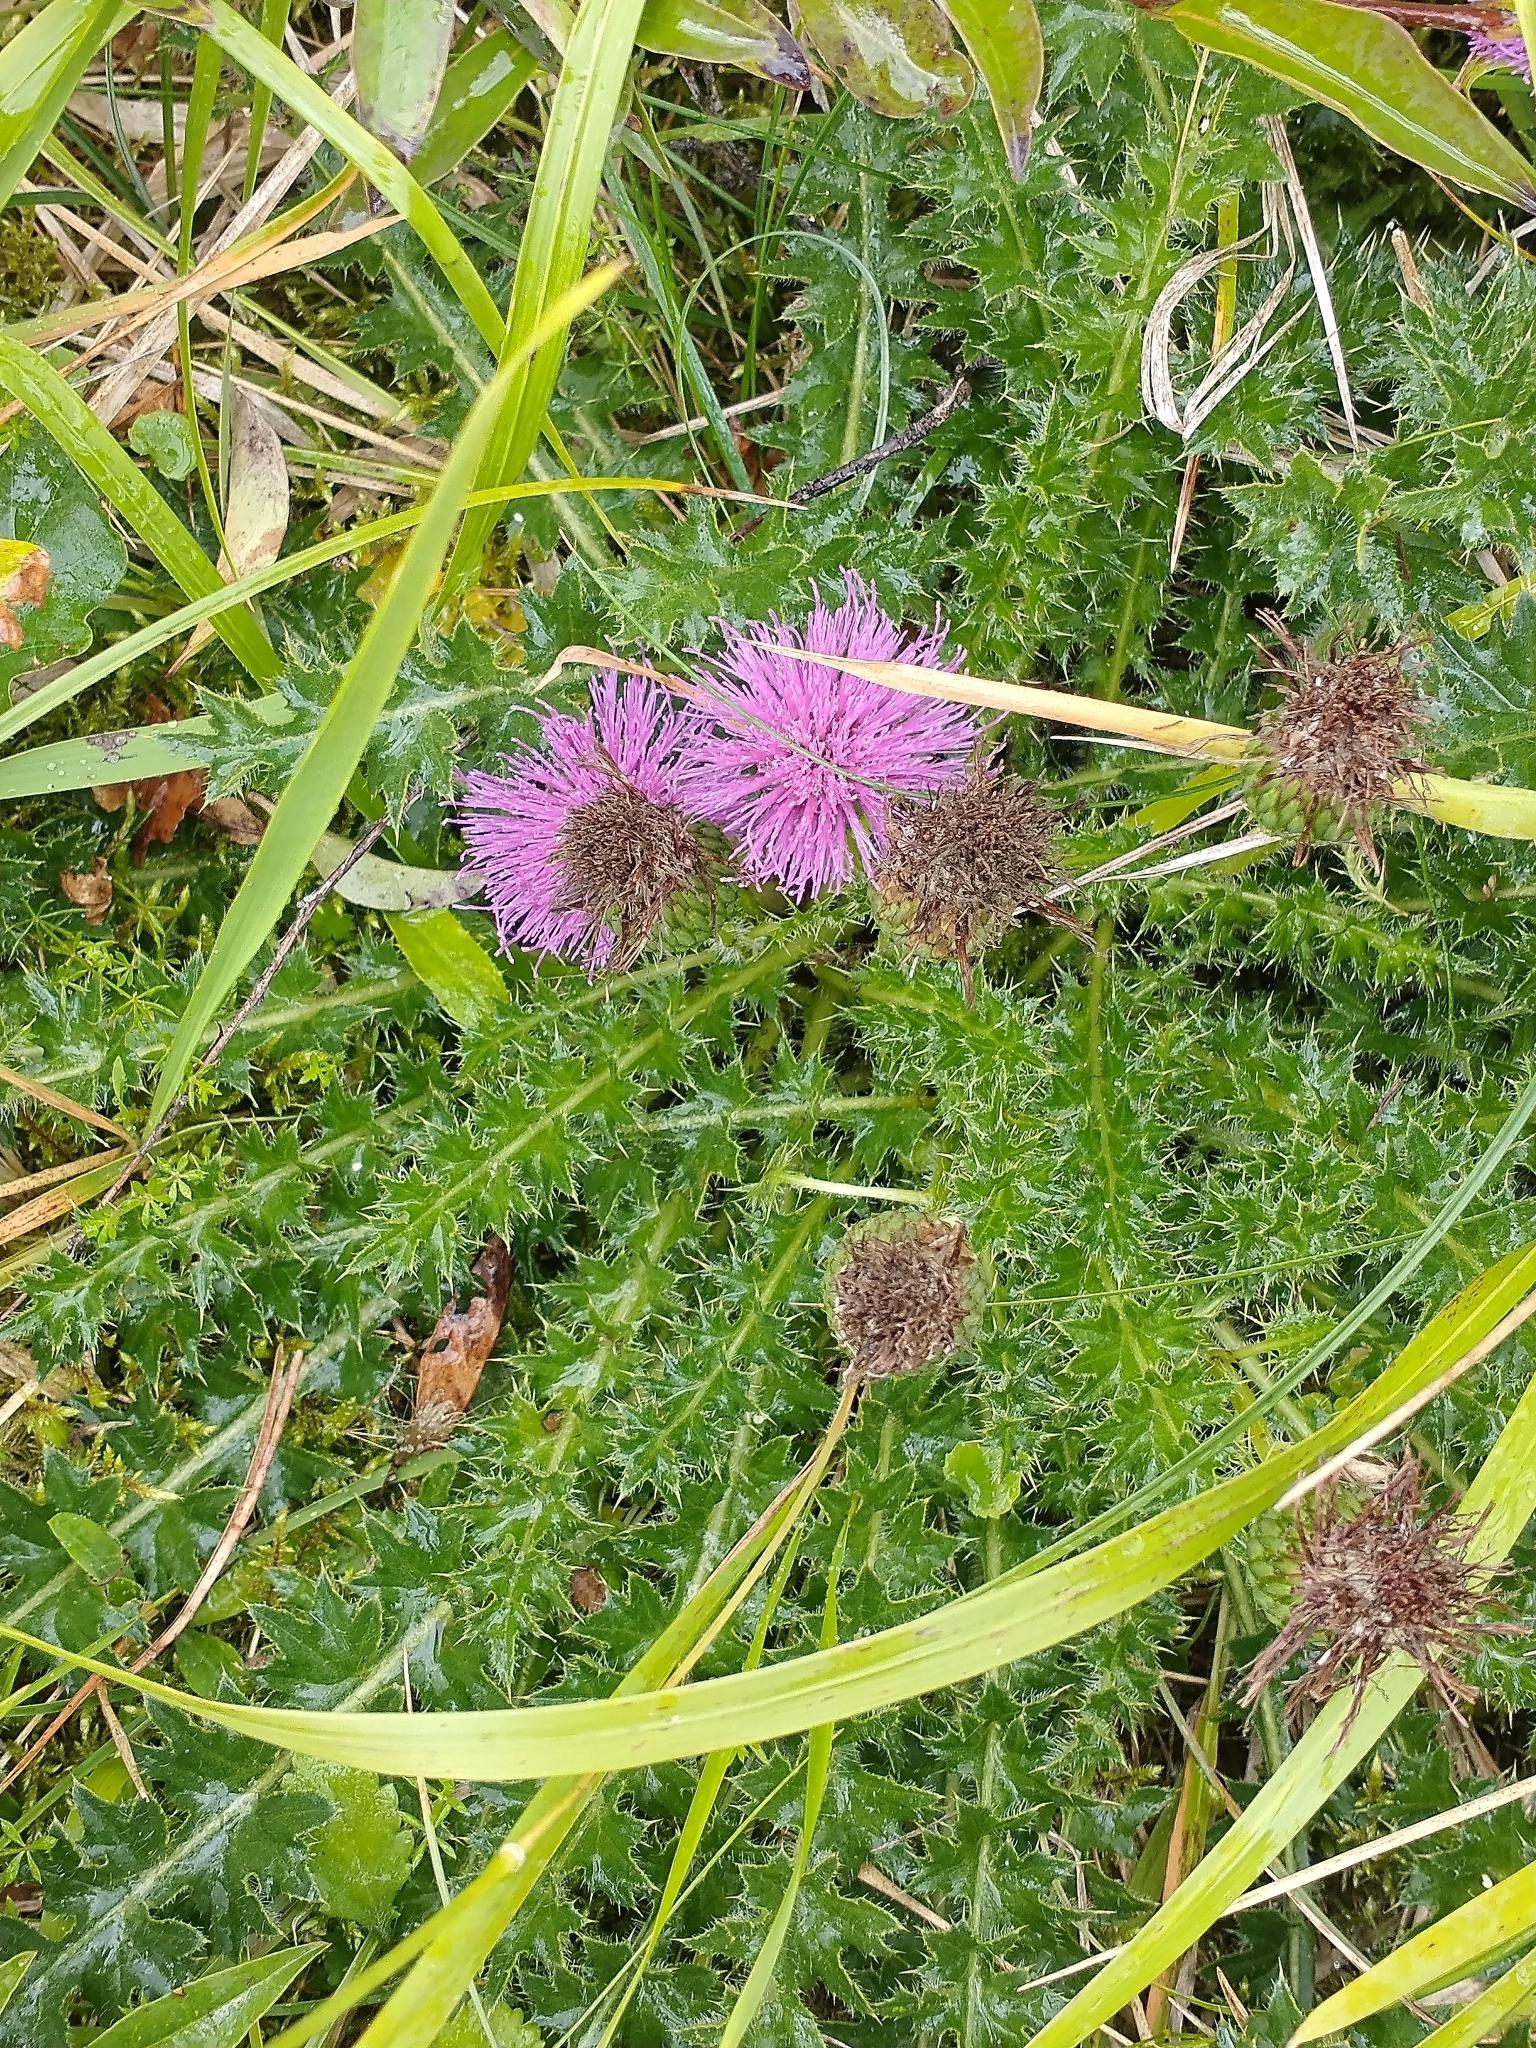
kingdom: Plantae
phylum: Tracheophyta
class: Magnoliopsida
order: Asterales
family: Asteraceae
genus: Cirsium
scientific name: Cirsium acaulon
